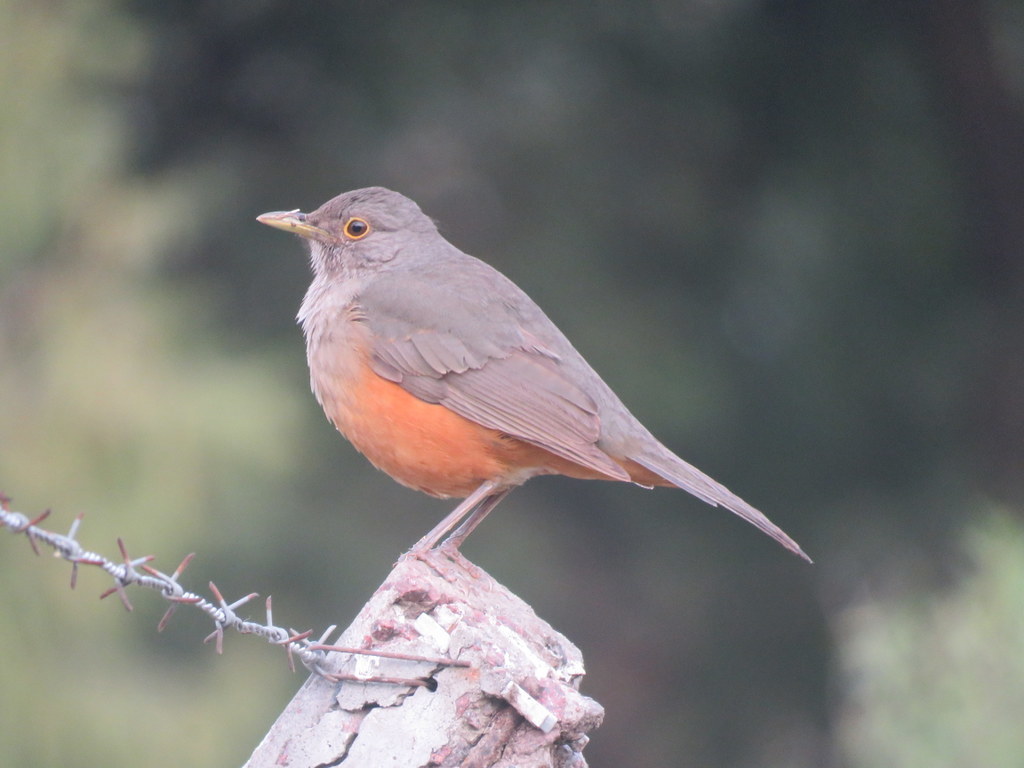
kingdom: Animalia
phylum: Chordata
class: Aves
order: Passeriformes
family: Turdidae
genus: Turdus
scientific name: Turdus rufiventris
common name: Rufous-bellied thrush
